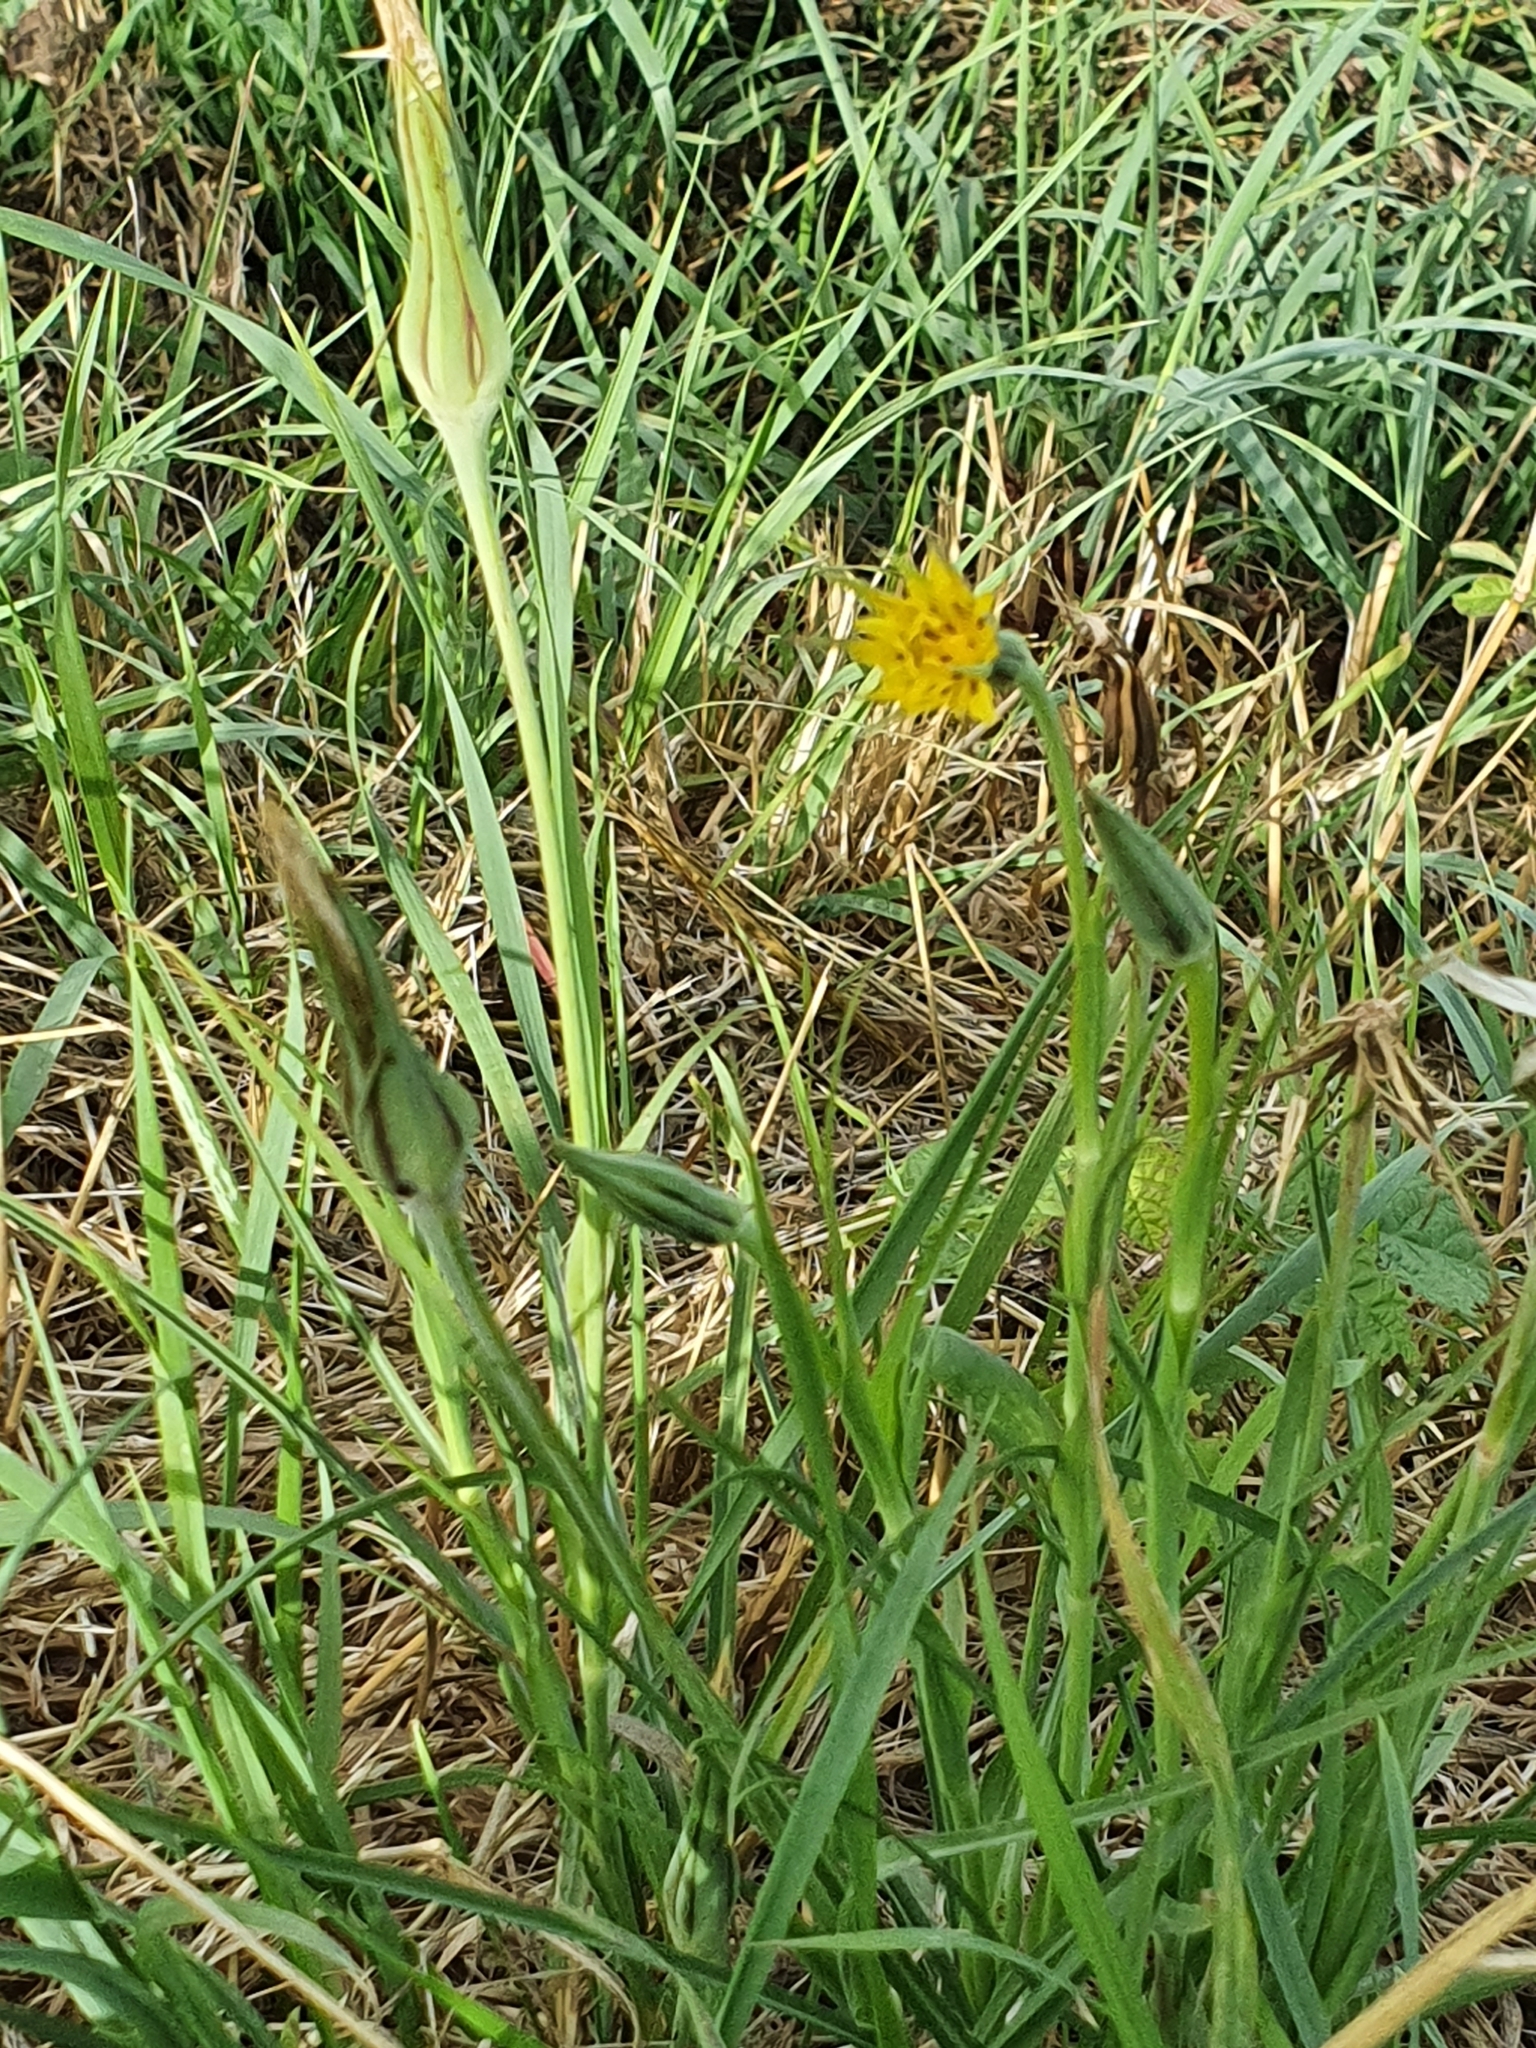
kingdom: Plantae
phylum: Tracheophyta
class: Magnoliopsida
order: Asterales
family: Asteraceae
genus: Tragopogon
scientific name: Tragopogon pratensis
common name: Goat's-beard
